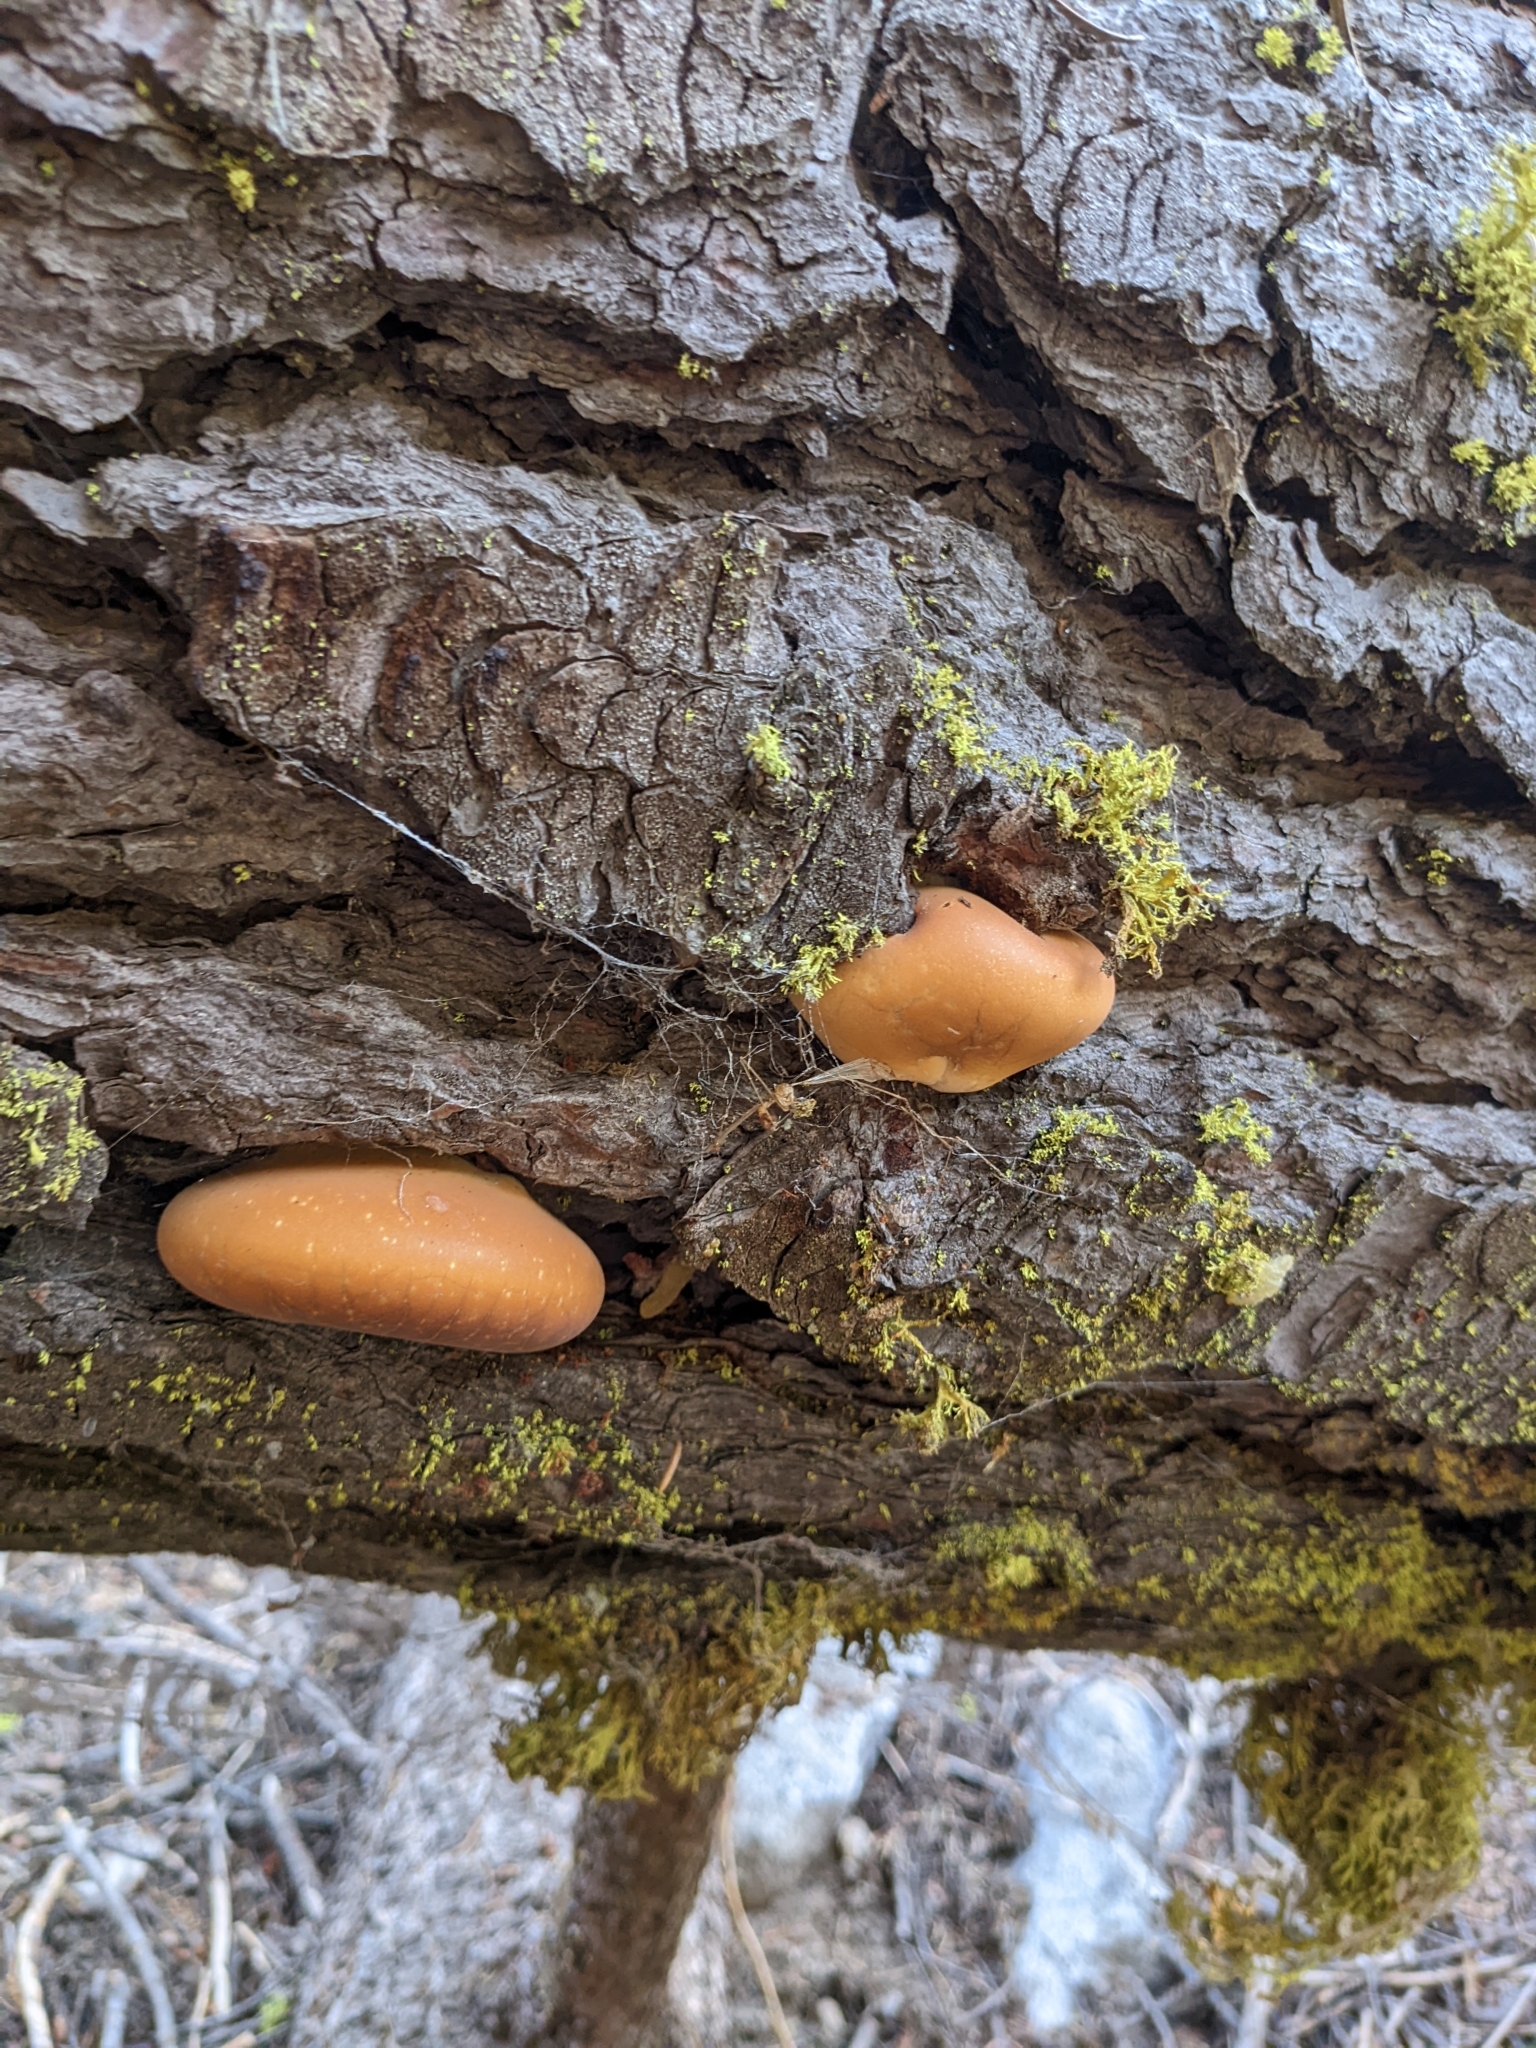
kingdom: Fungi
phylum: Basidiomycota
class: Agaricomycetes
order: Polyporales
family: Polyporaceae
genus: Cryptoporus
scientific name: Cryptoporus volvatus
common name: Veiled polypore
